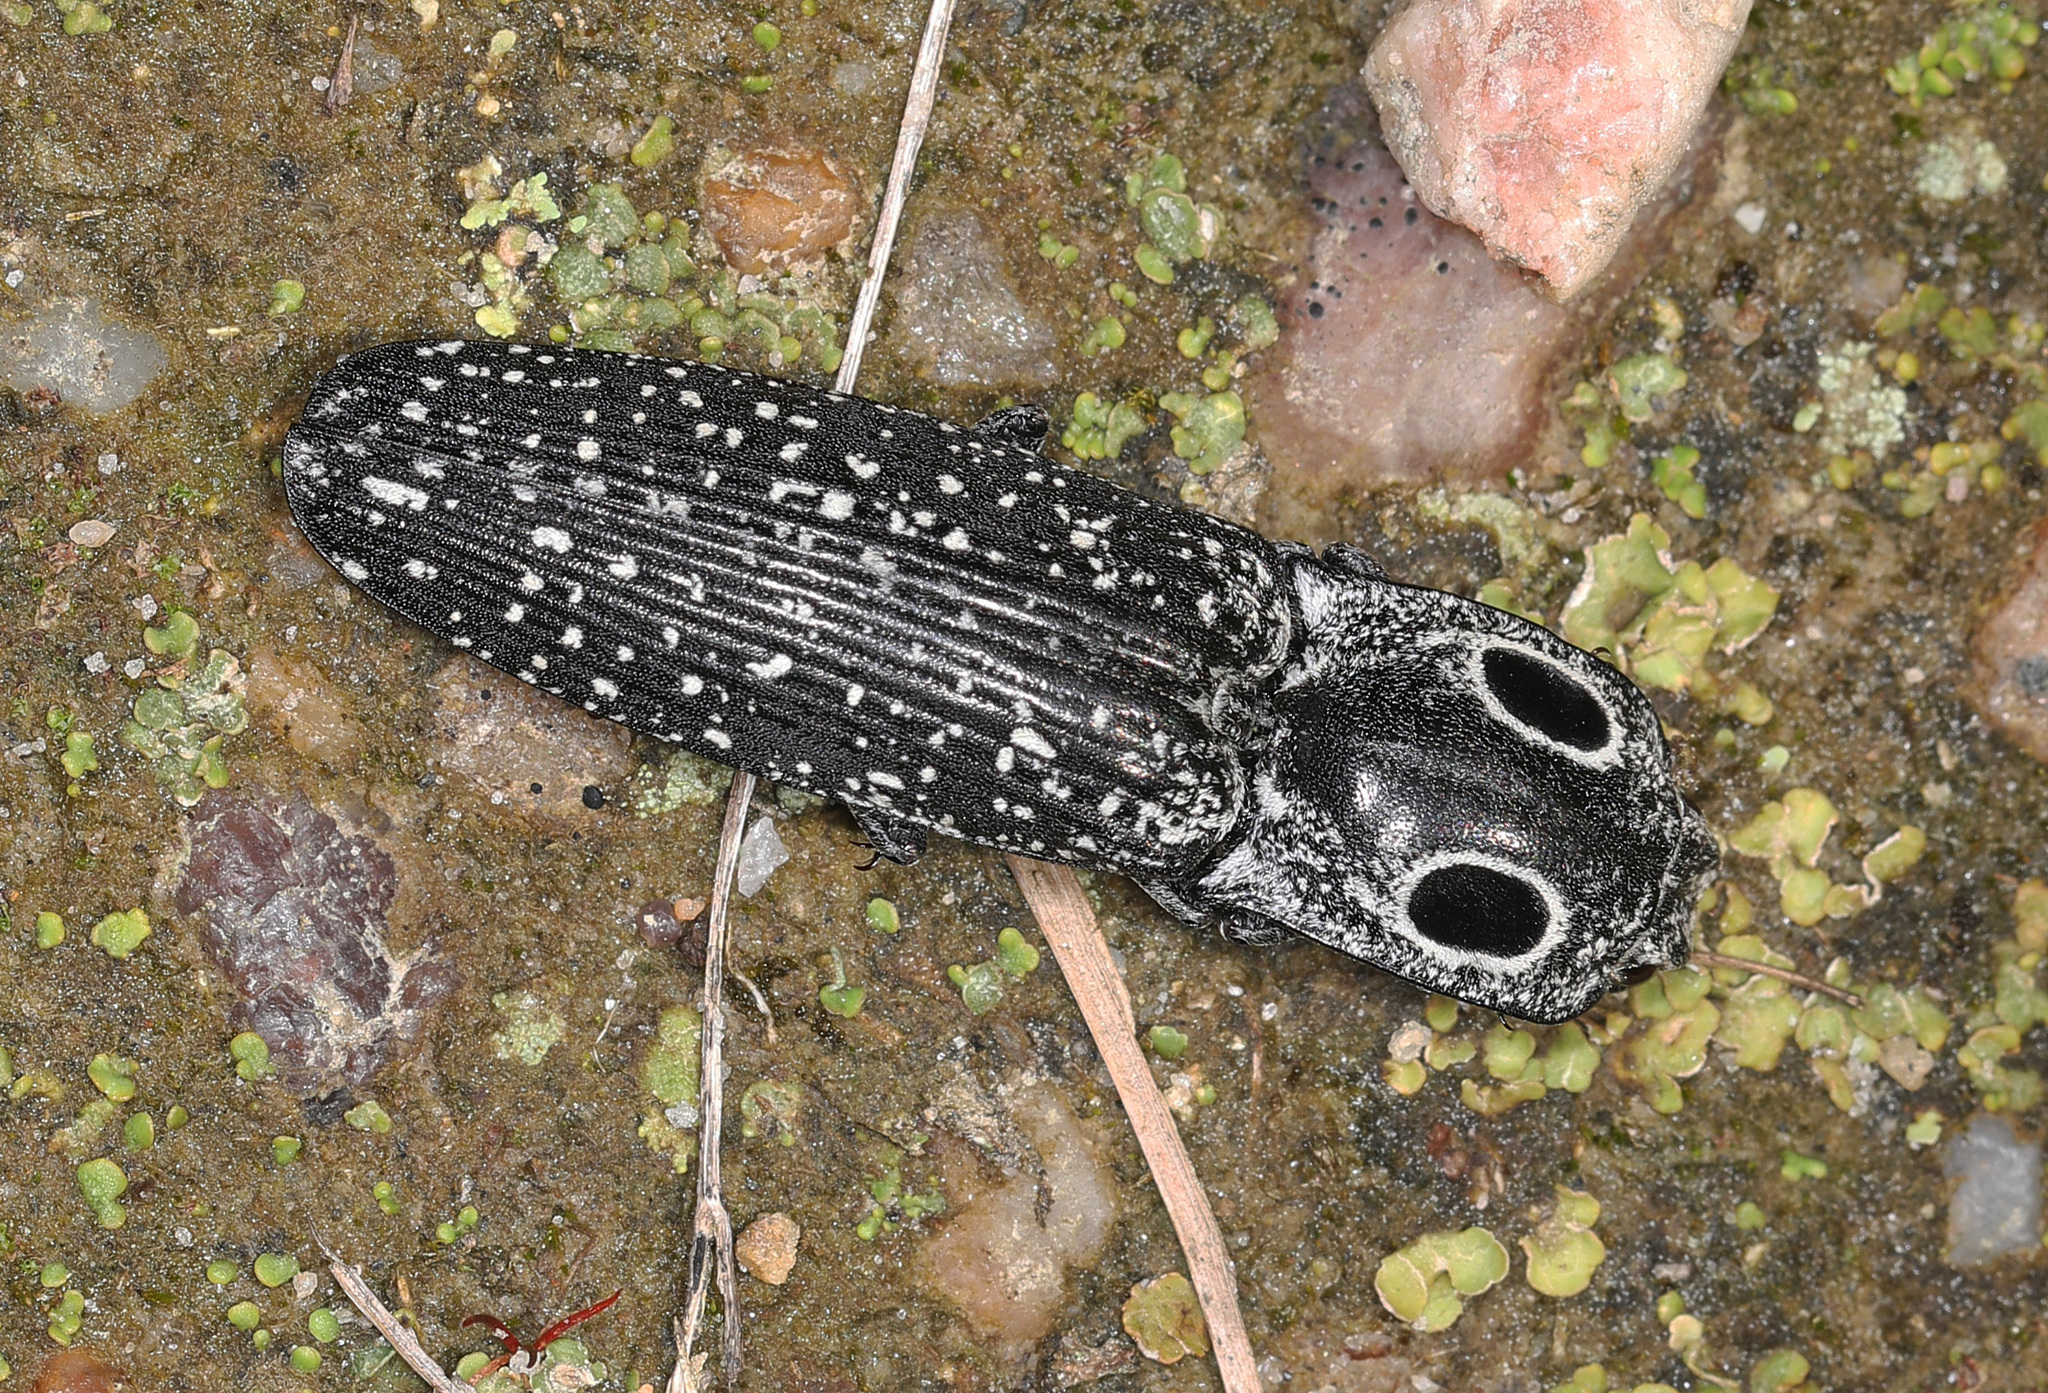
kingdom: Animalia
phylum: Arthropoda
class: Insecta
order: Coleoptera
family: Elateridae
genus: Alaus
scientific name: Alaus oculatus
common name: Eastern eyed click beetle
